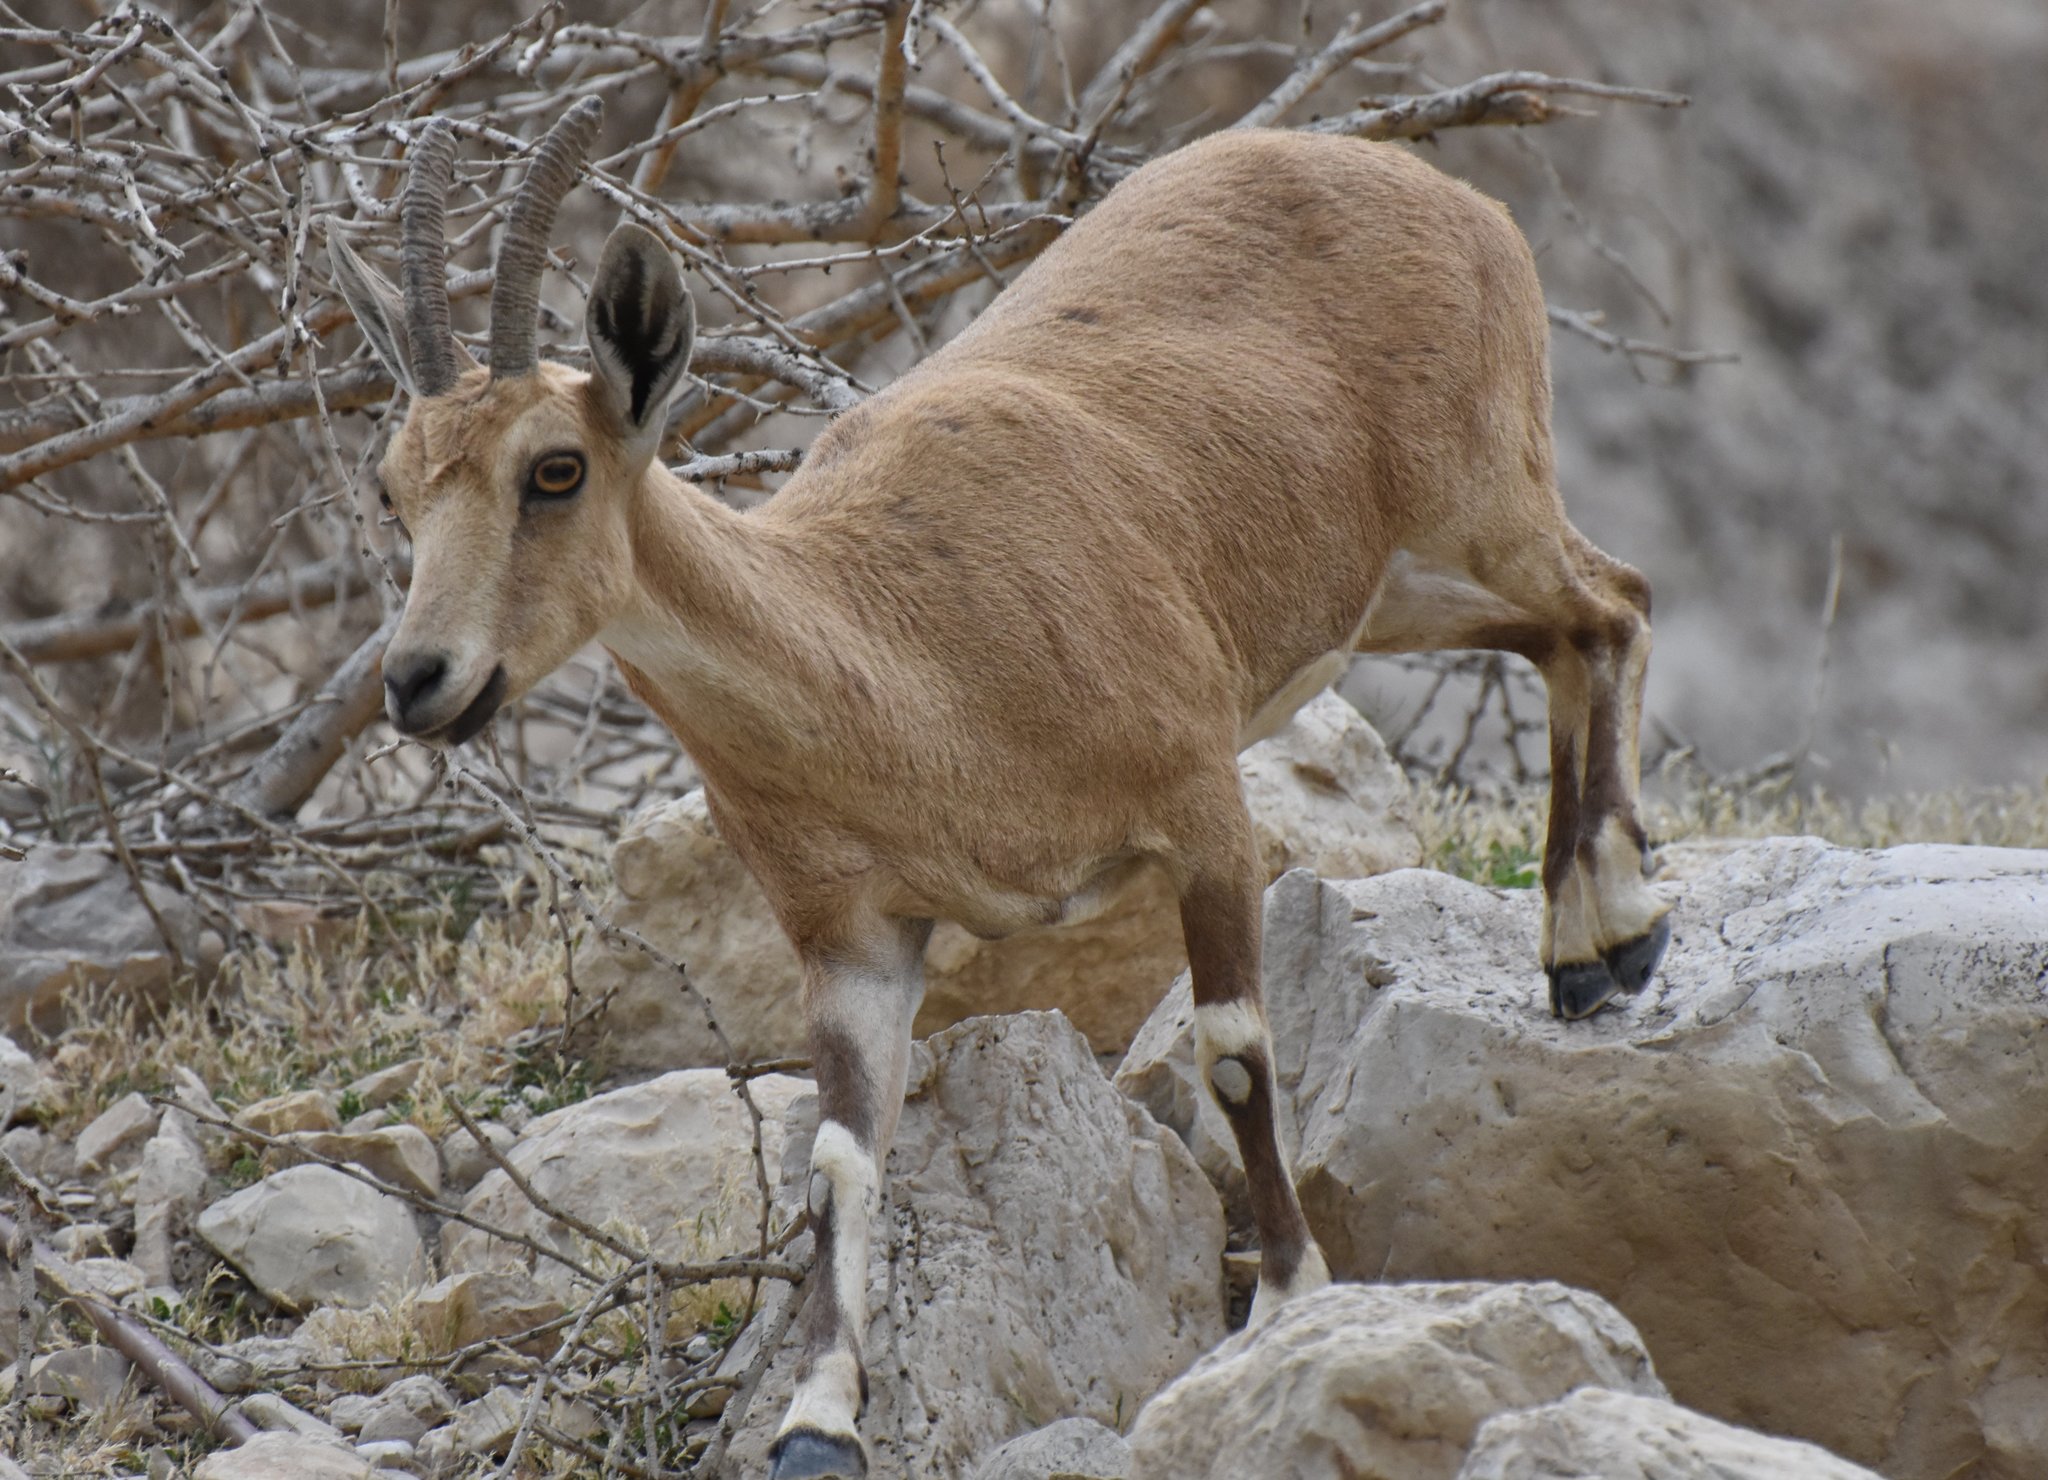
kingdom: Animalia
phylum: Chordata
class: Mammalia
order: Artiodactyla
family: Bovidae
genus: Capra
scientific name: Capra nubiana
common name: Nubian ibex
